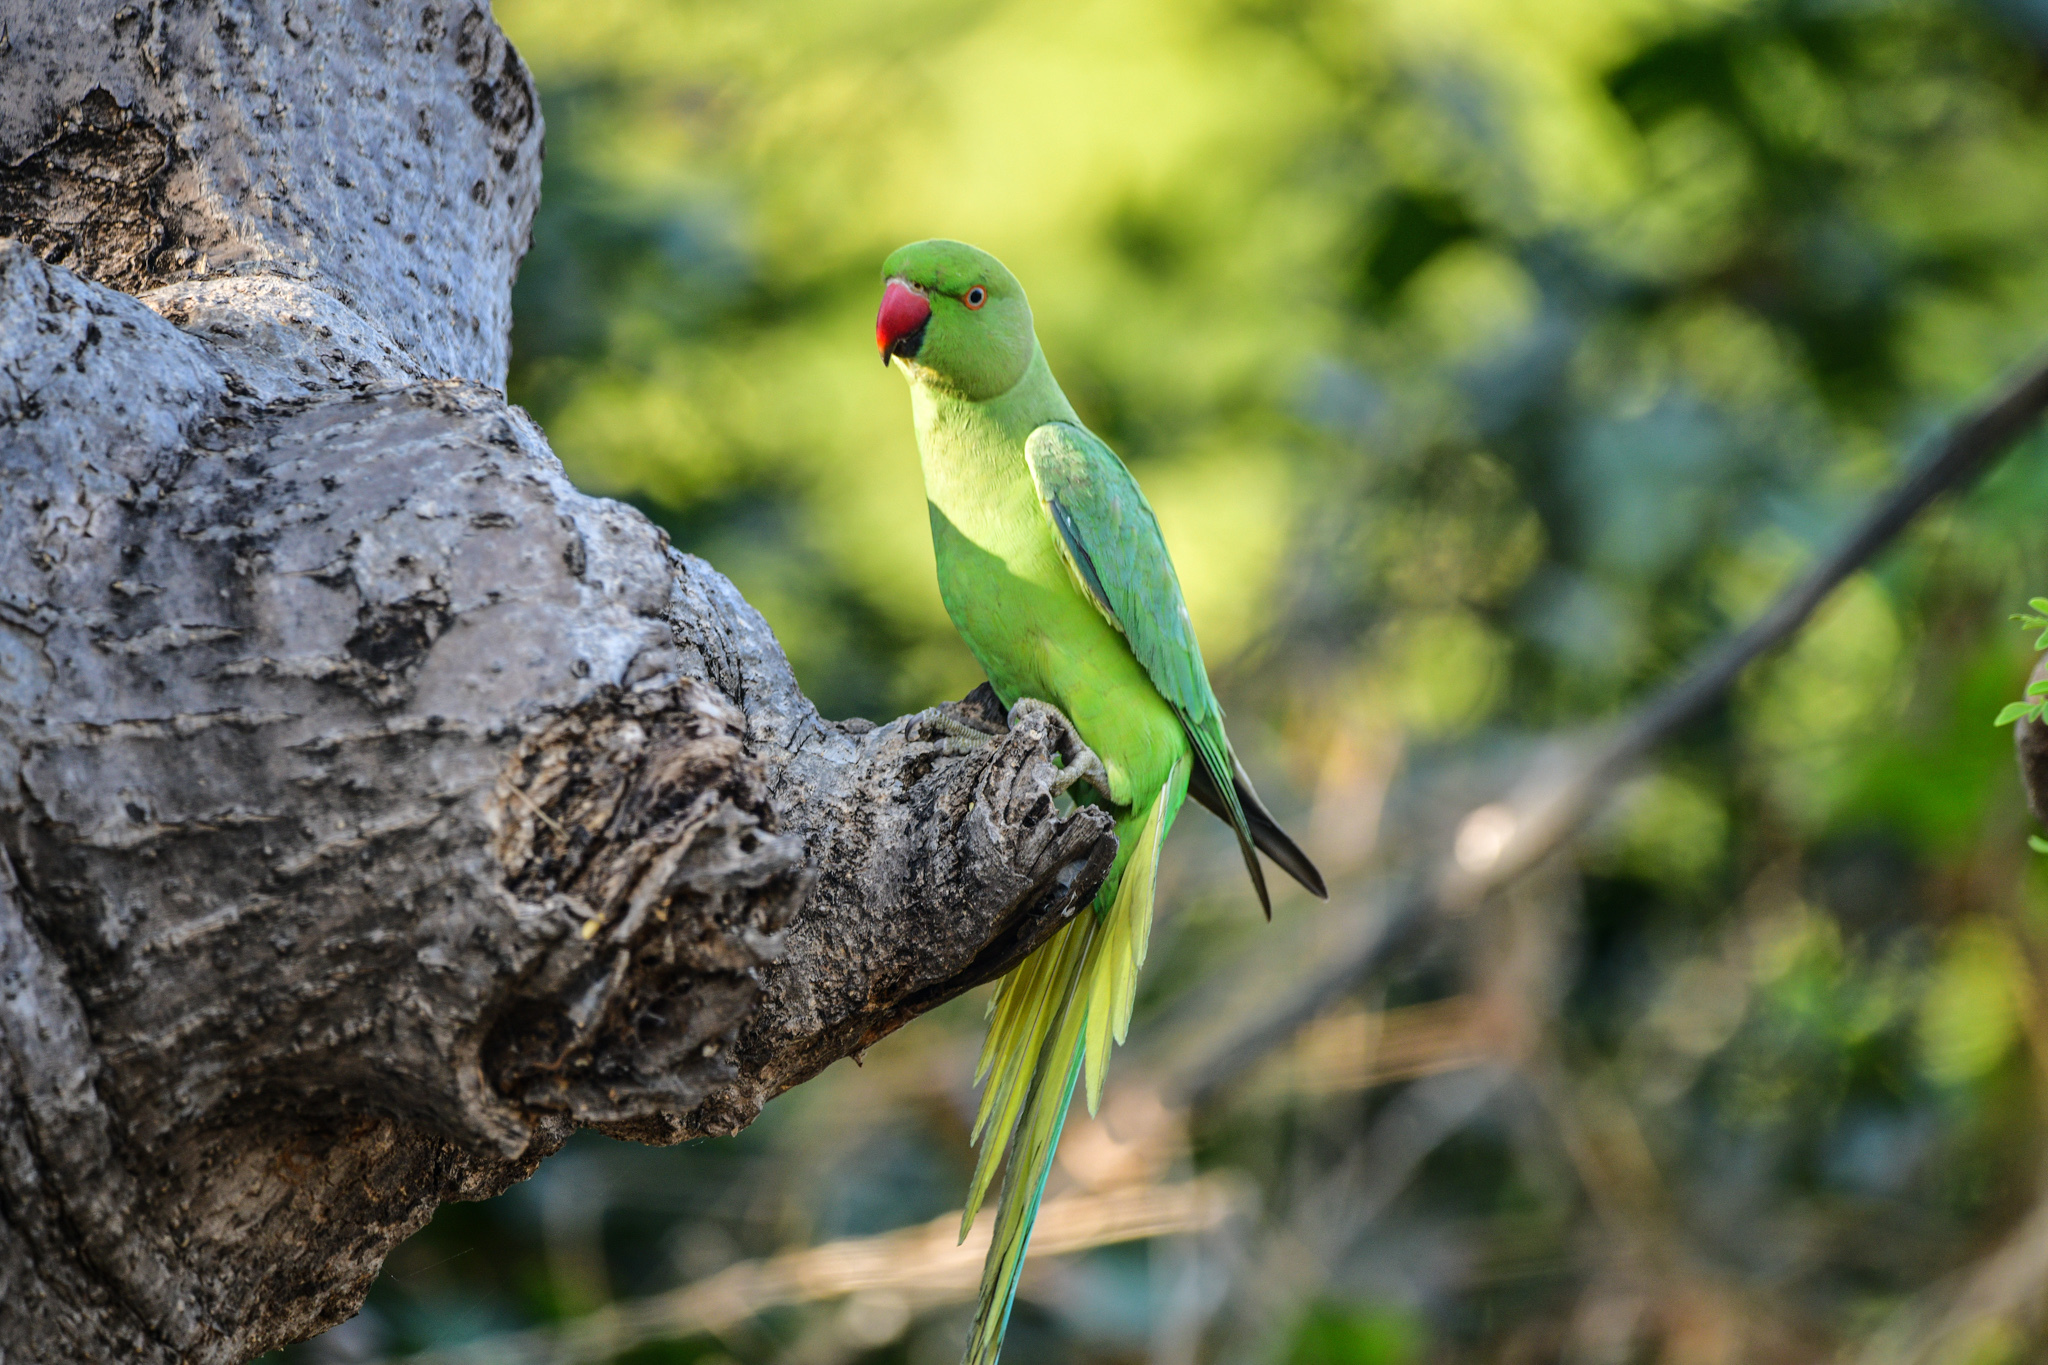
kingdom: Animalia
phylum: Chordata
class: Aves
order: Psittaciformes
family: Psittacidae
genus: Psittacula
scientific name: Psittacula krameri
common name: Rose-ringed parakeet
